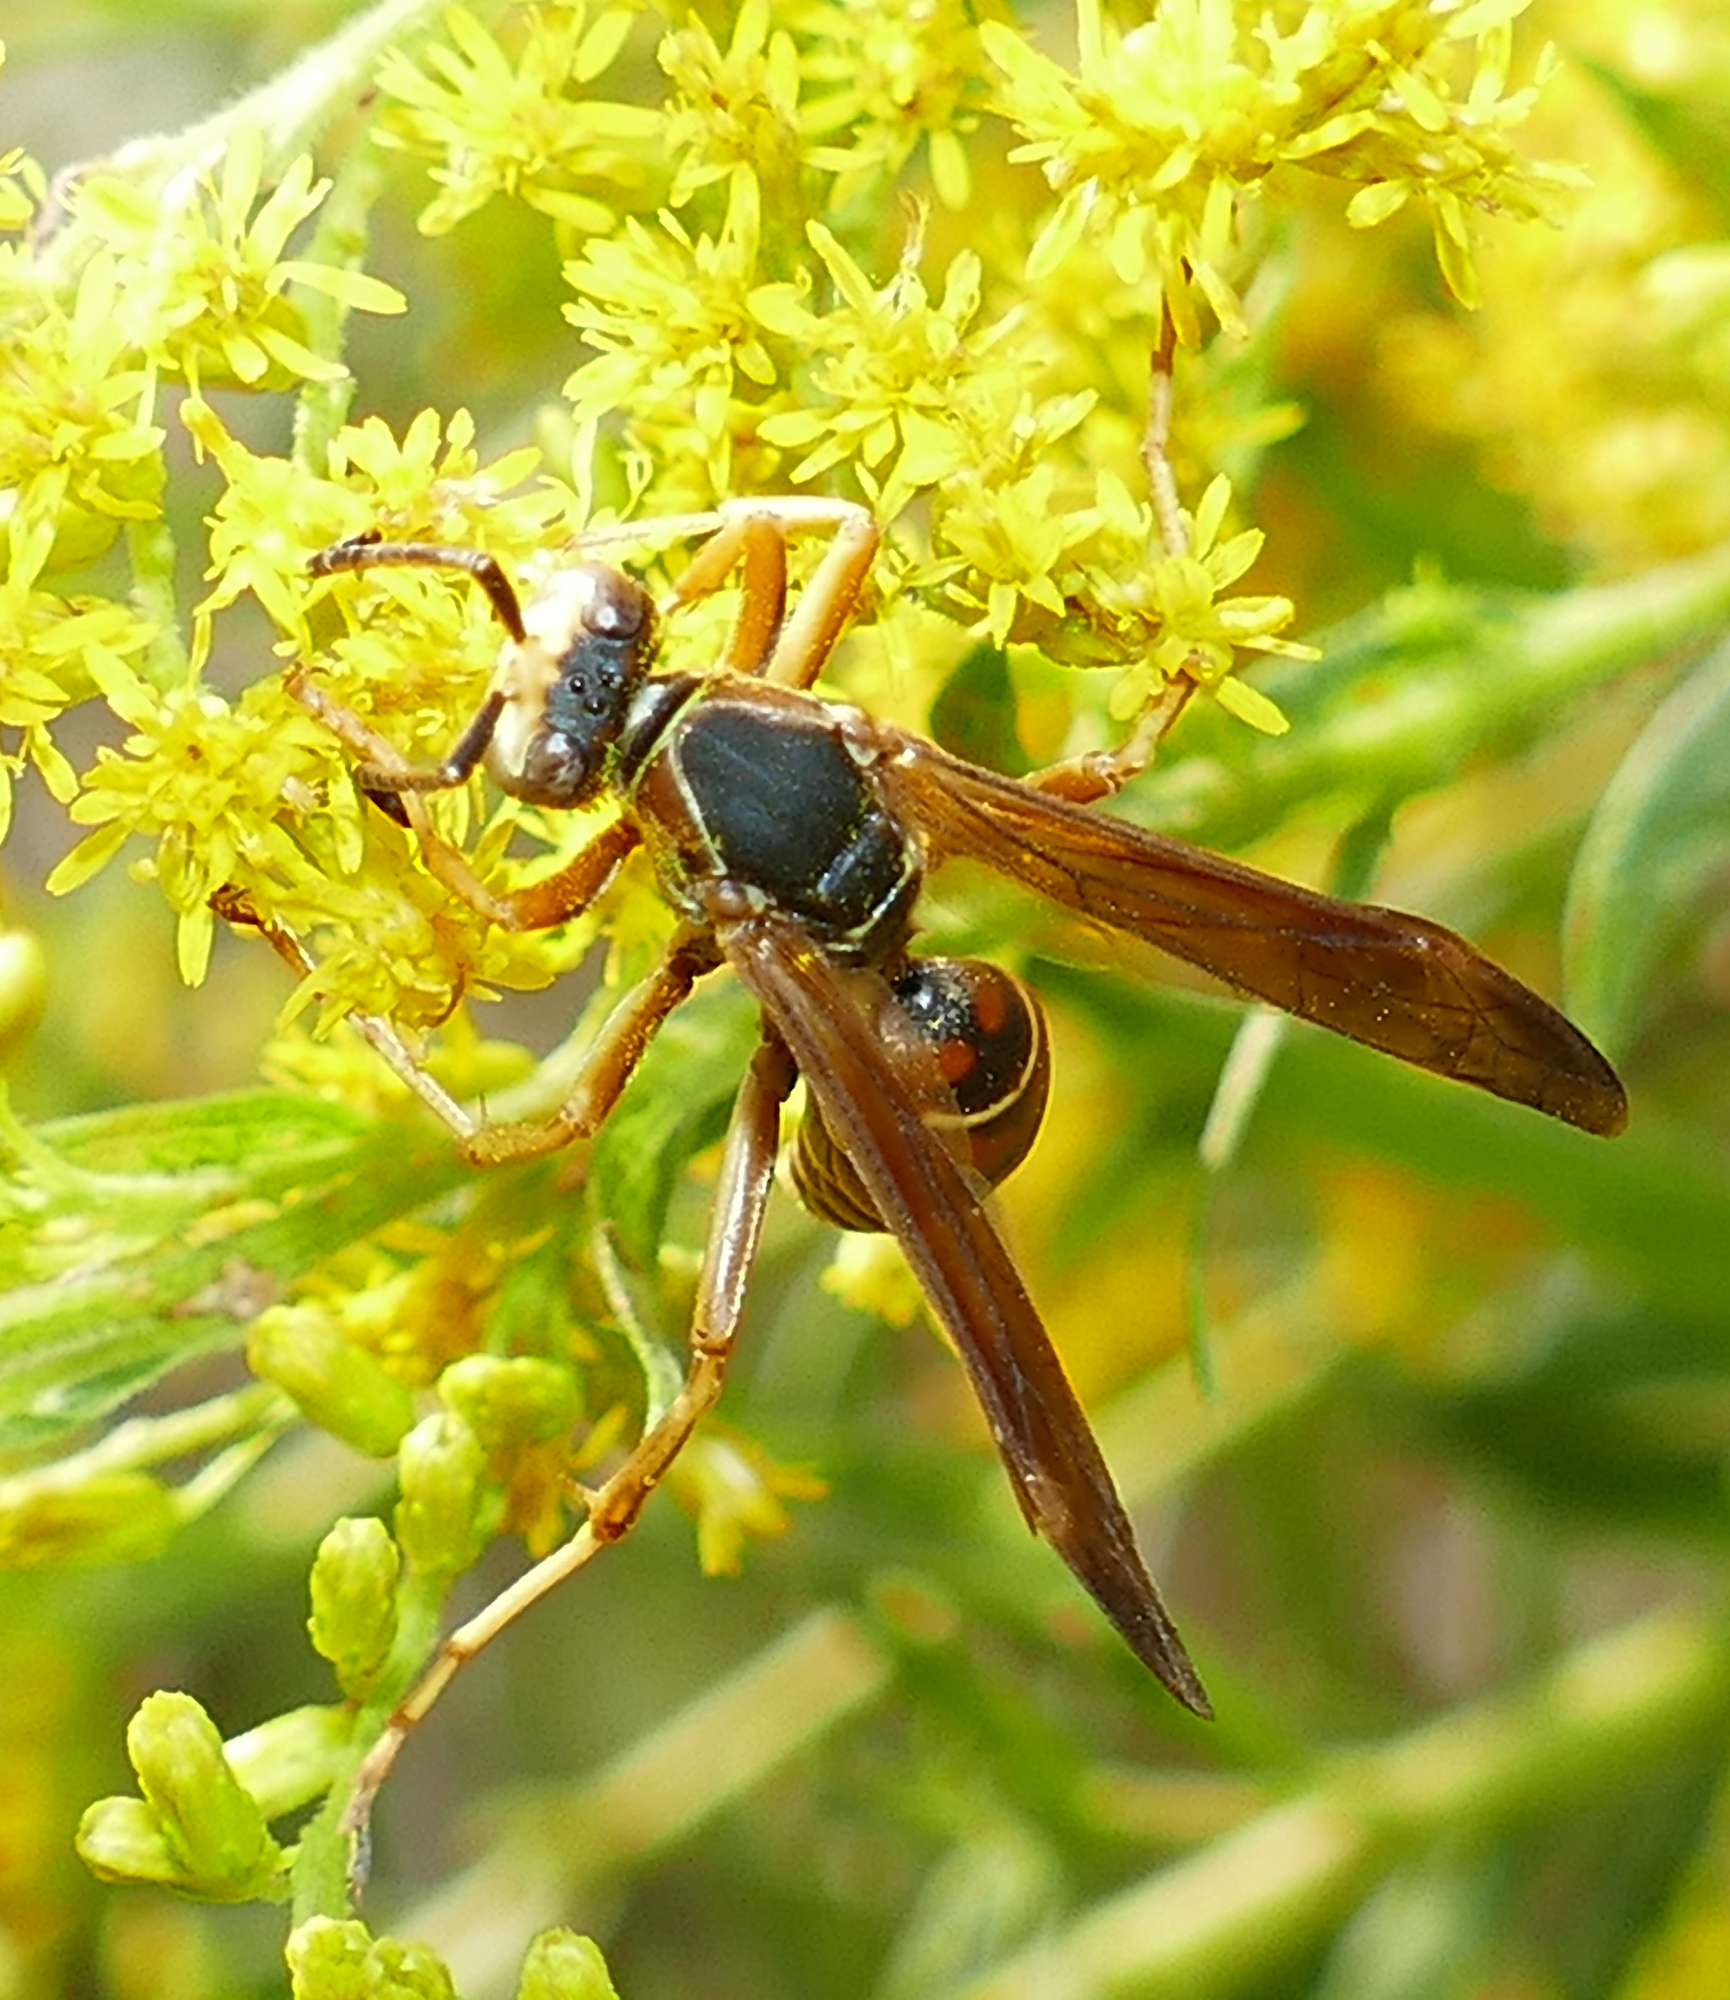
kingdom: Animalia
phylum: Arthropoda
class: Insecta
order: Hymenoptera
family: Eumenidae
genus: Polistes
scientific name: Polistes fuscatus
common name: Dark paper wasp
